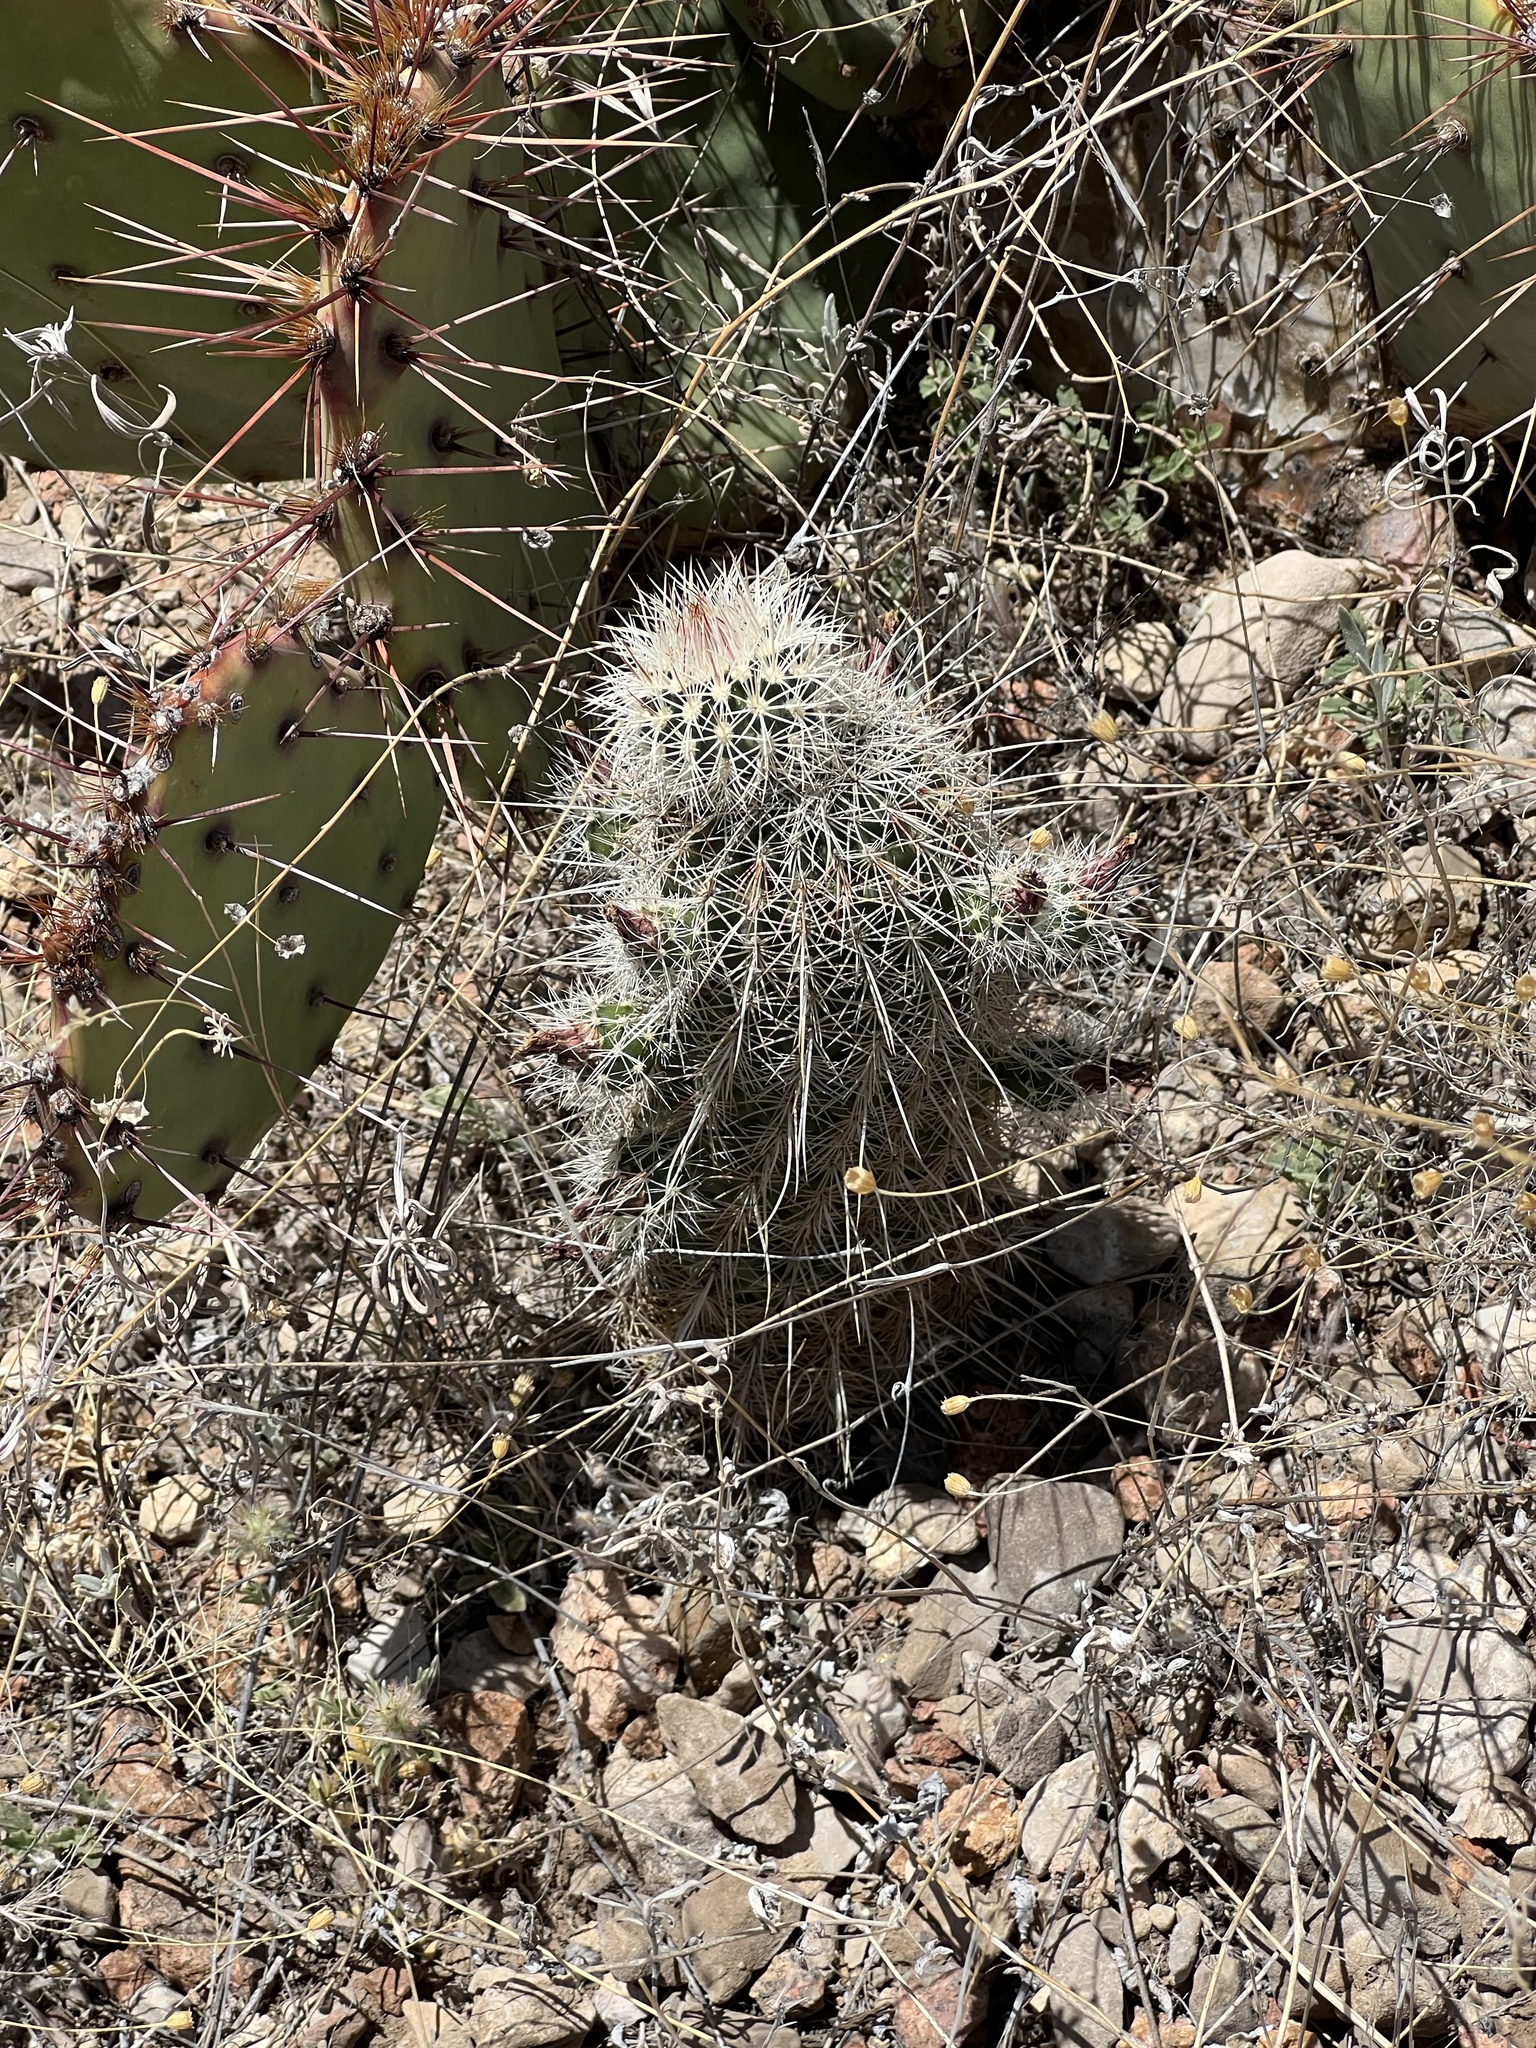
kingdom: Plantae
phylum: Tracheophyta
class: Magnoliopsida
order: Caryophyllales
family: Cactaceae
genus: Echinocereus
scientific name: Echinocereus viridiflorus
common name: Nylon hedgehog cactus
